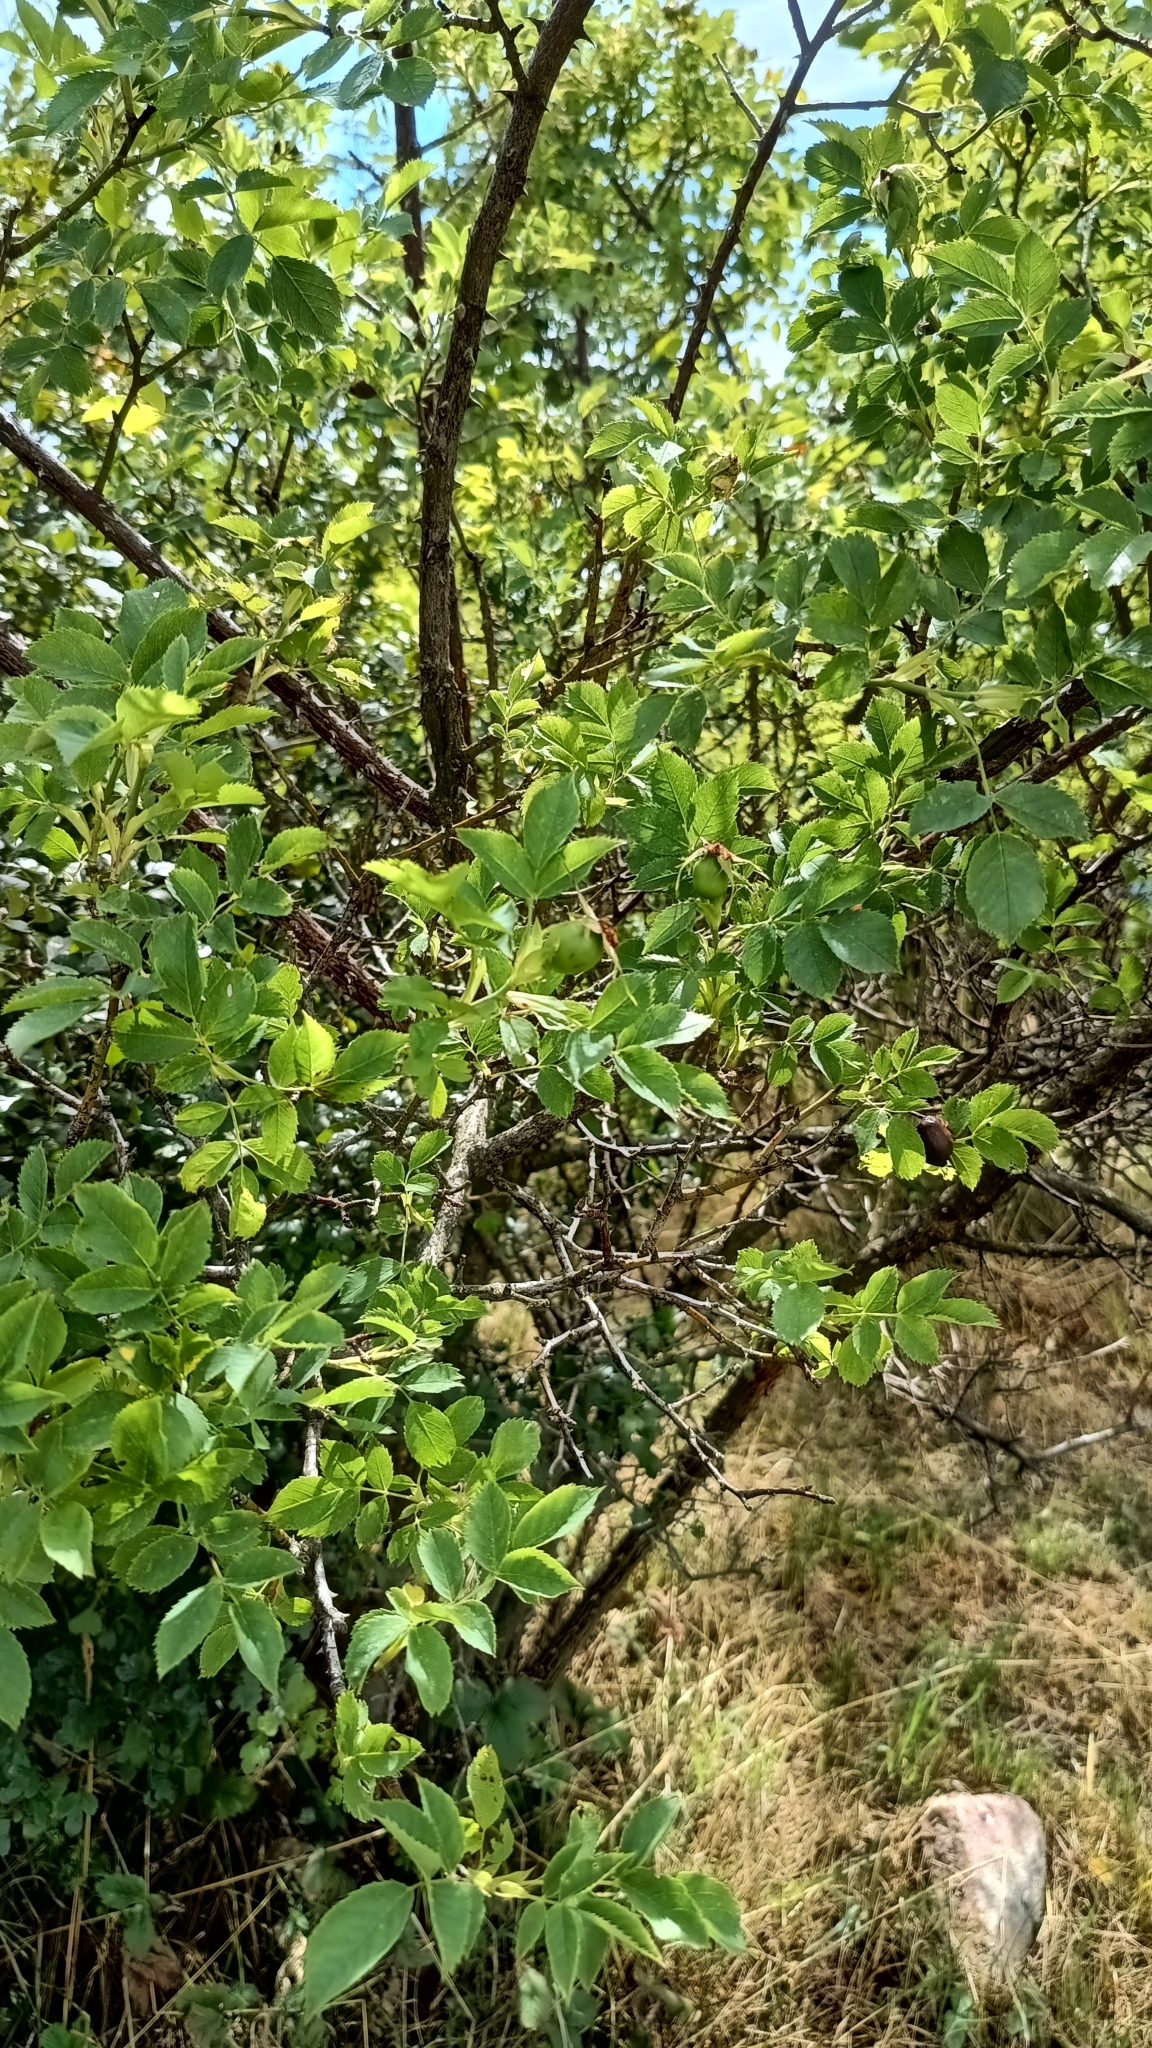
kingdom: Plantae
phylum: Tracheophyta
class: Magnoliopsida
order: Rosales
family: Rosaceae
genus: Rosa
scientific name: Rosa subcanina
